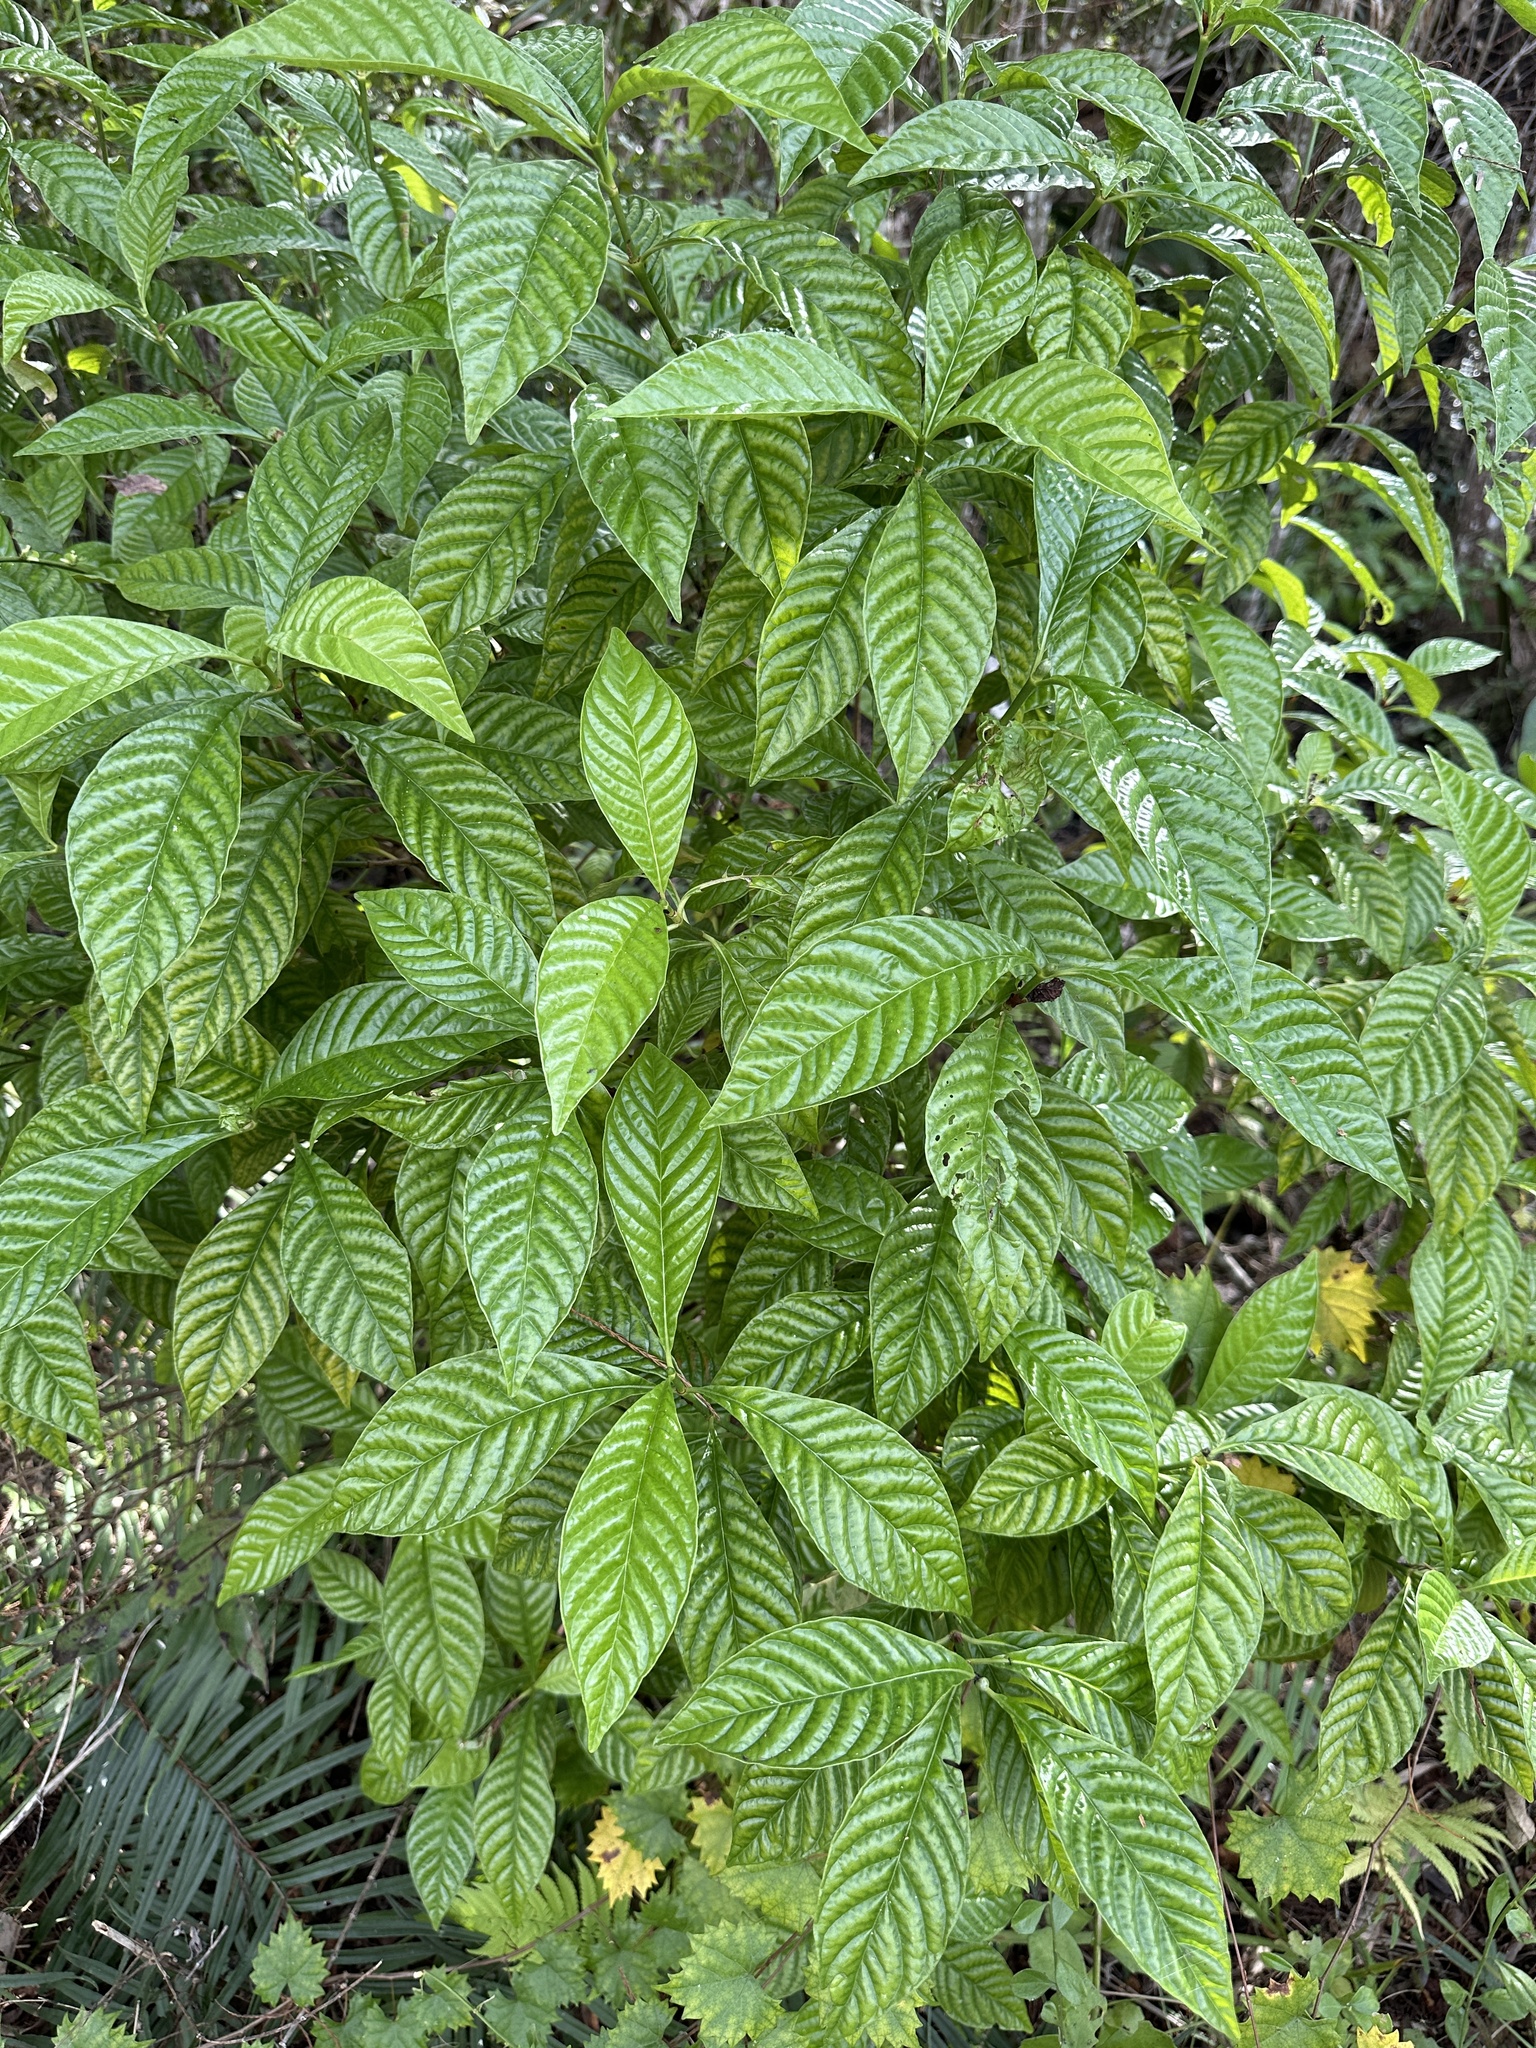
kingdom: Plantae
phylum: Tracheophyta
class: Magnoliopsida
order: Gentianales
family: Rubiaceae
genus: Psychotria
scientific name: Psychotria nervosa
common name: Bastard cankerberry
